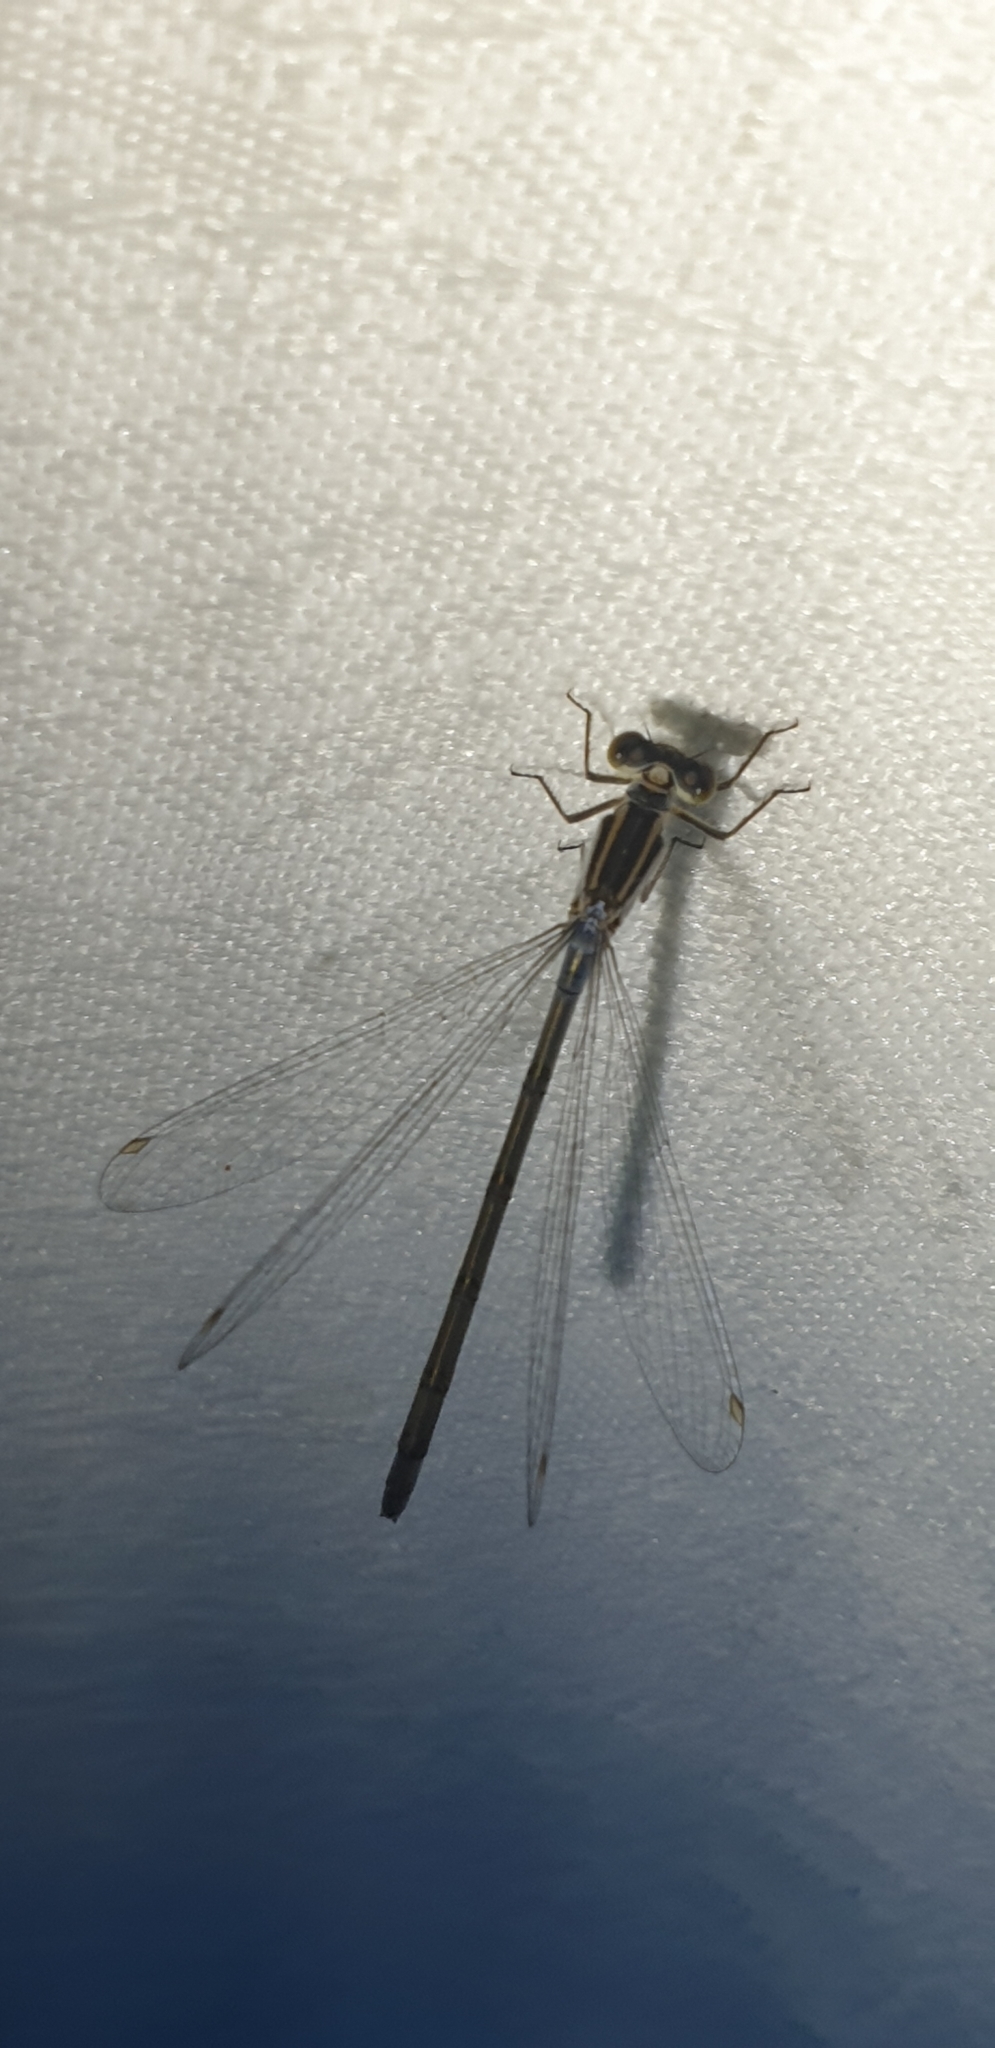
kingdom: Animalia
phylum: Arthropoda
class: Insecta
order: Odonata
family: Coenagrionidae
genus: Ischnura
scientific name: Ischnura heterosticta
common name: Common bluetail
